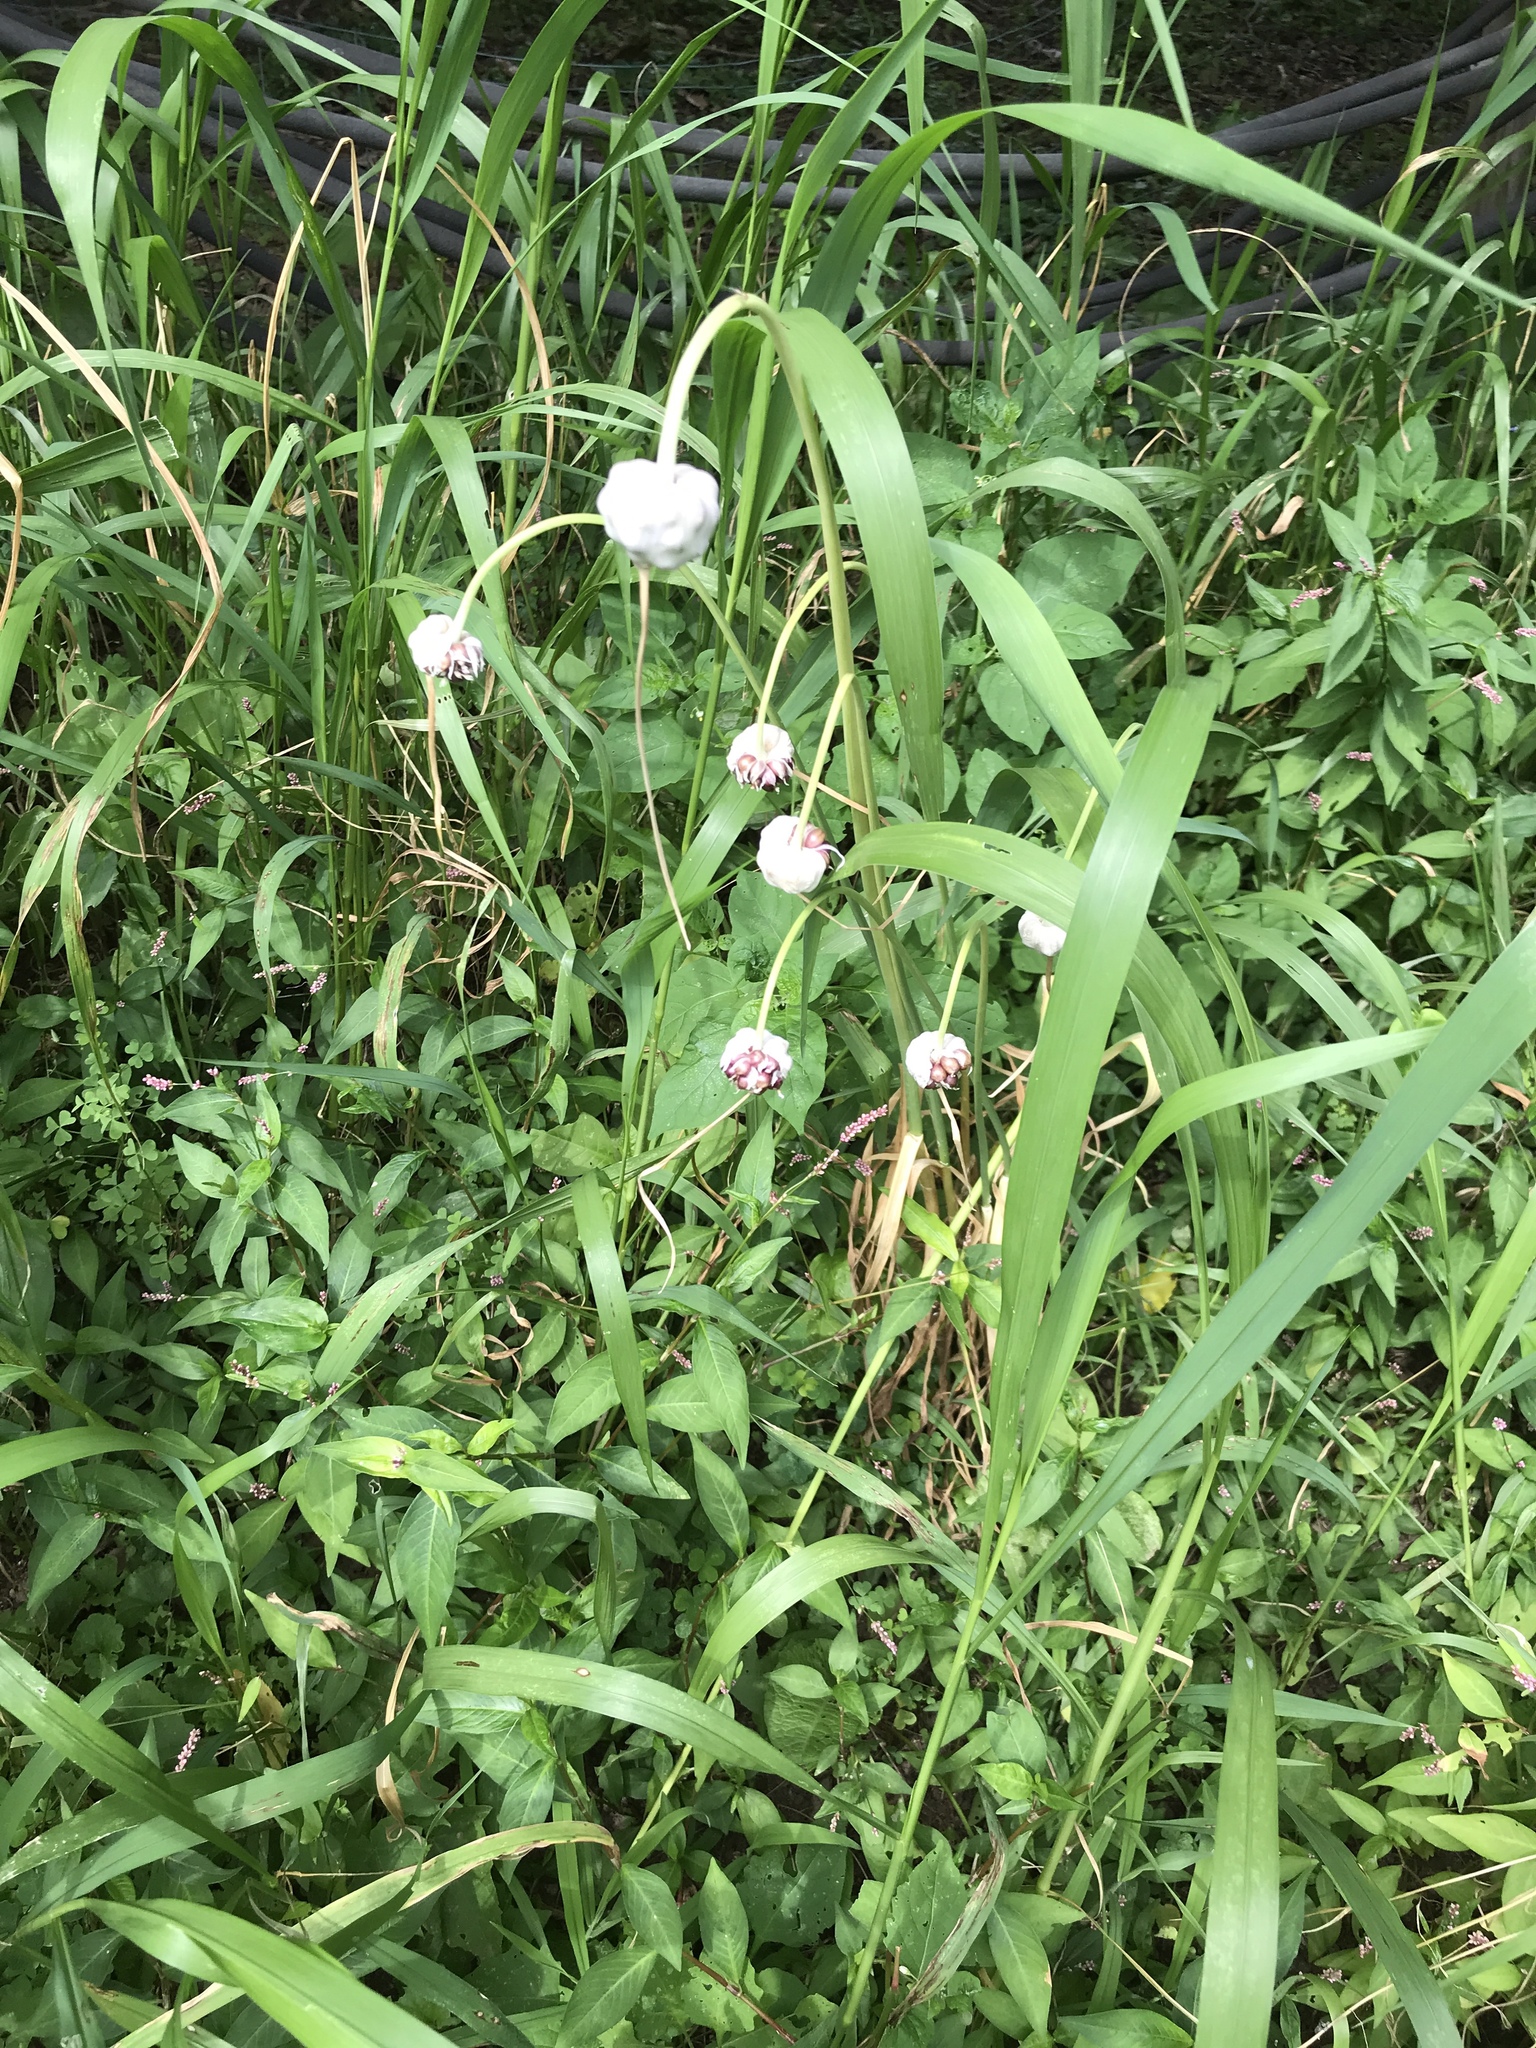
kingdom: Plantae
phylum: Tracheophyta
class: Liliopsida
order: Asparagales
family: Amaryllidaceae
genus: Allium
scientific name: Allium vineale
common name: Crow garlic
